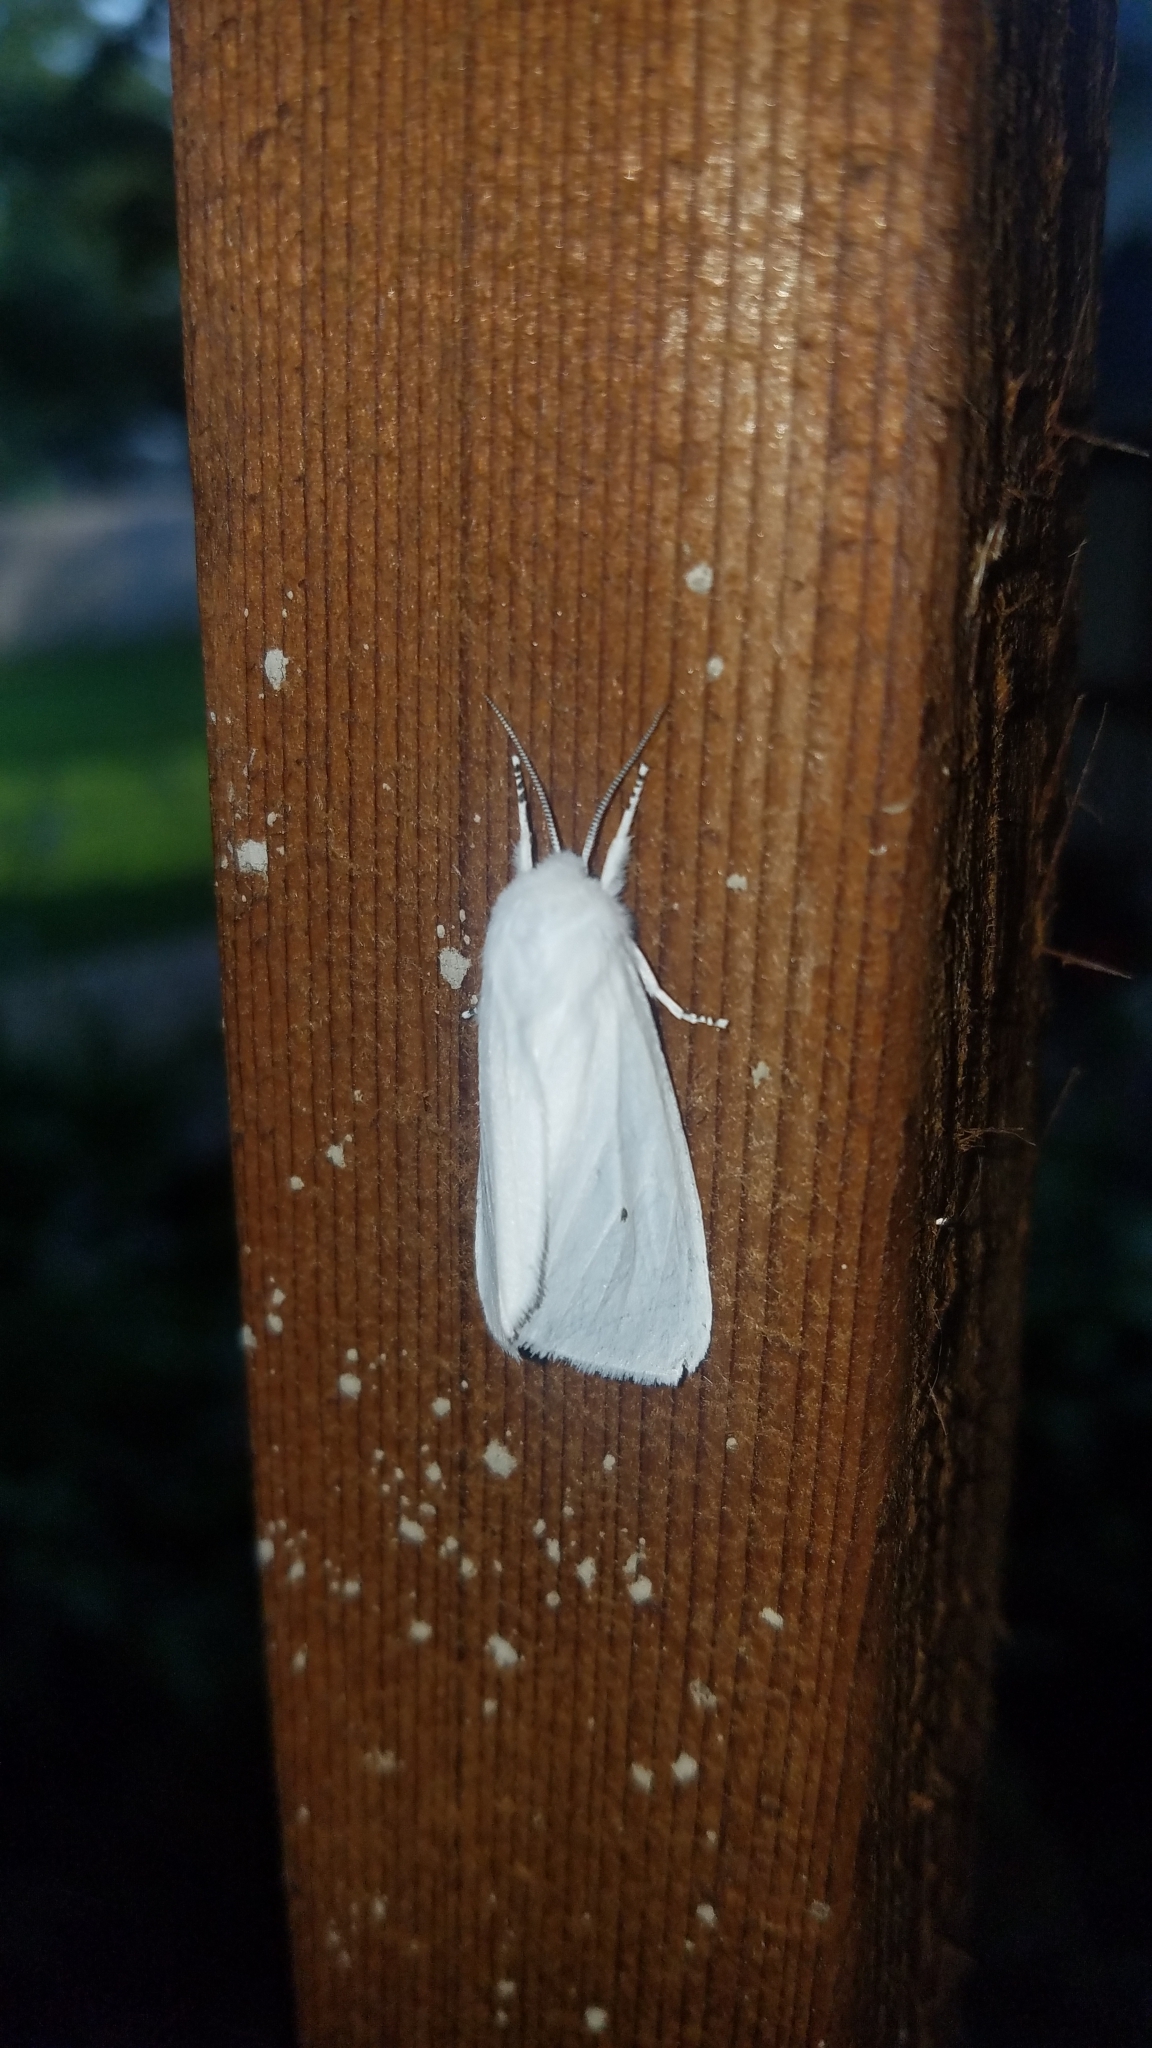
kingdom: Animalia
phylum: Arthropoda
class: Insecta
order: Lepidoptera
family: Erebidae
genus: Spilosoma
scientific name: Spilosoma virginica
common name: Virginia tiger moth
